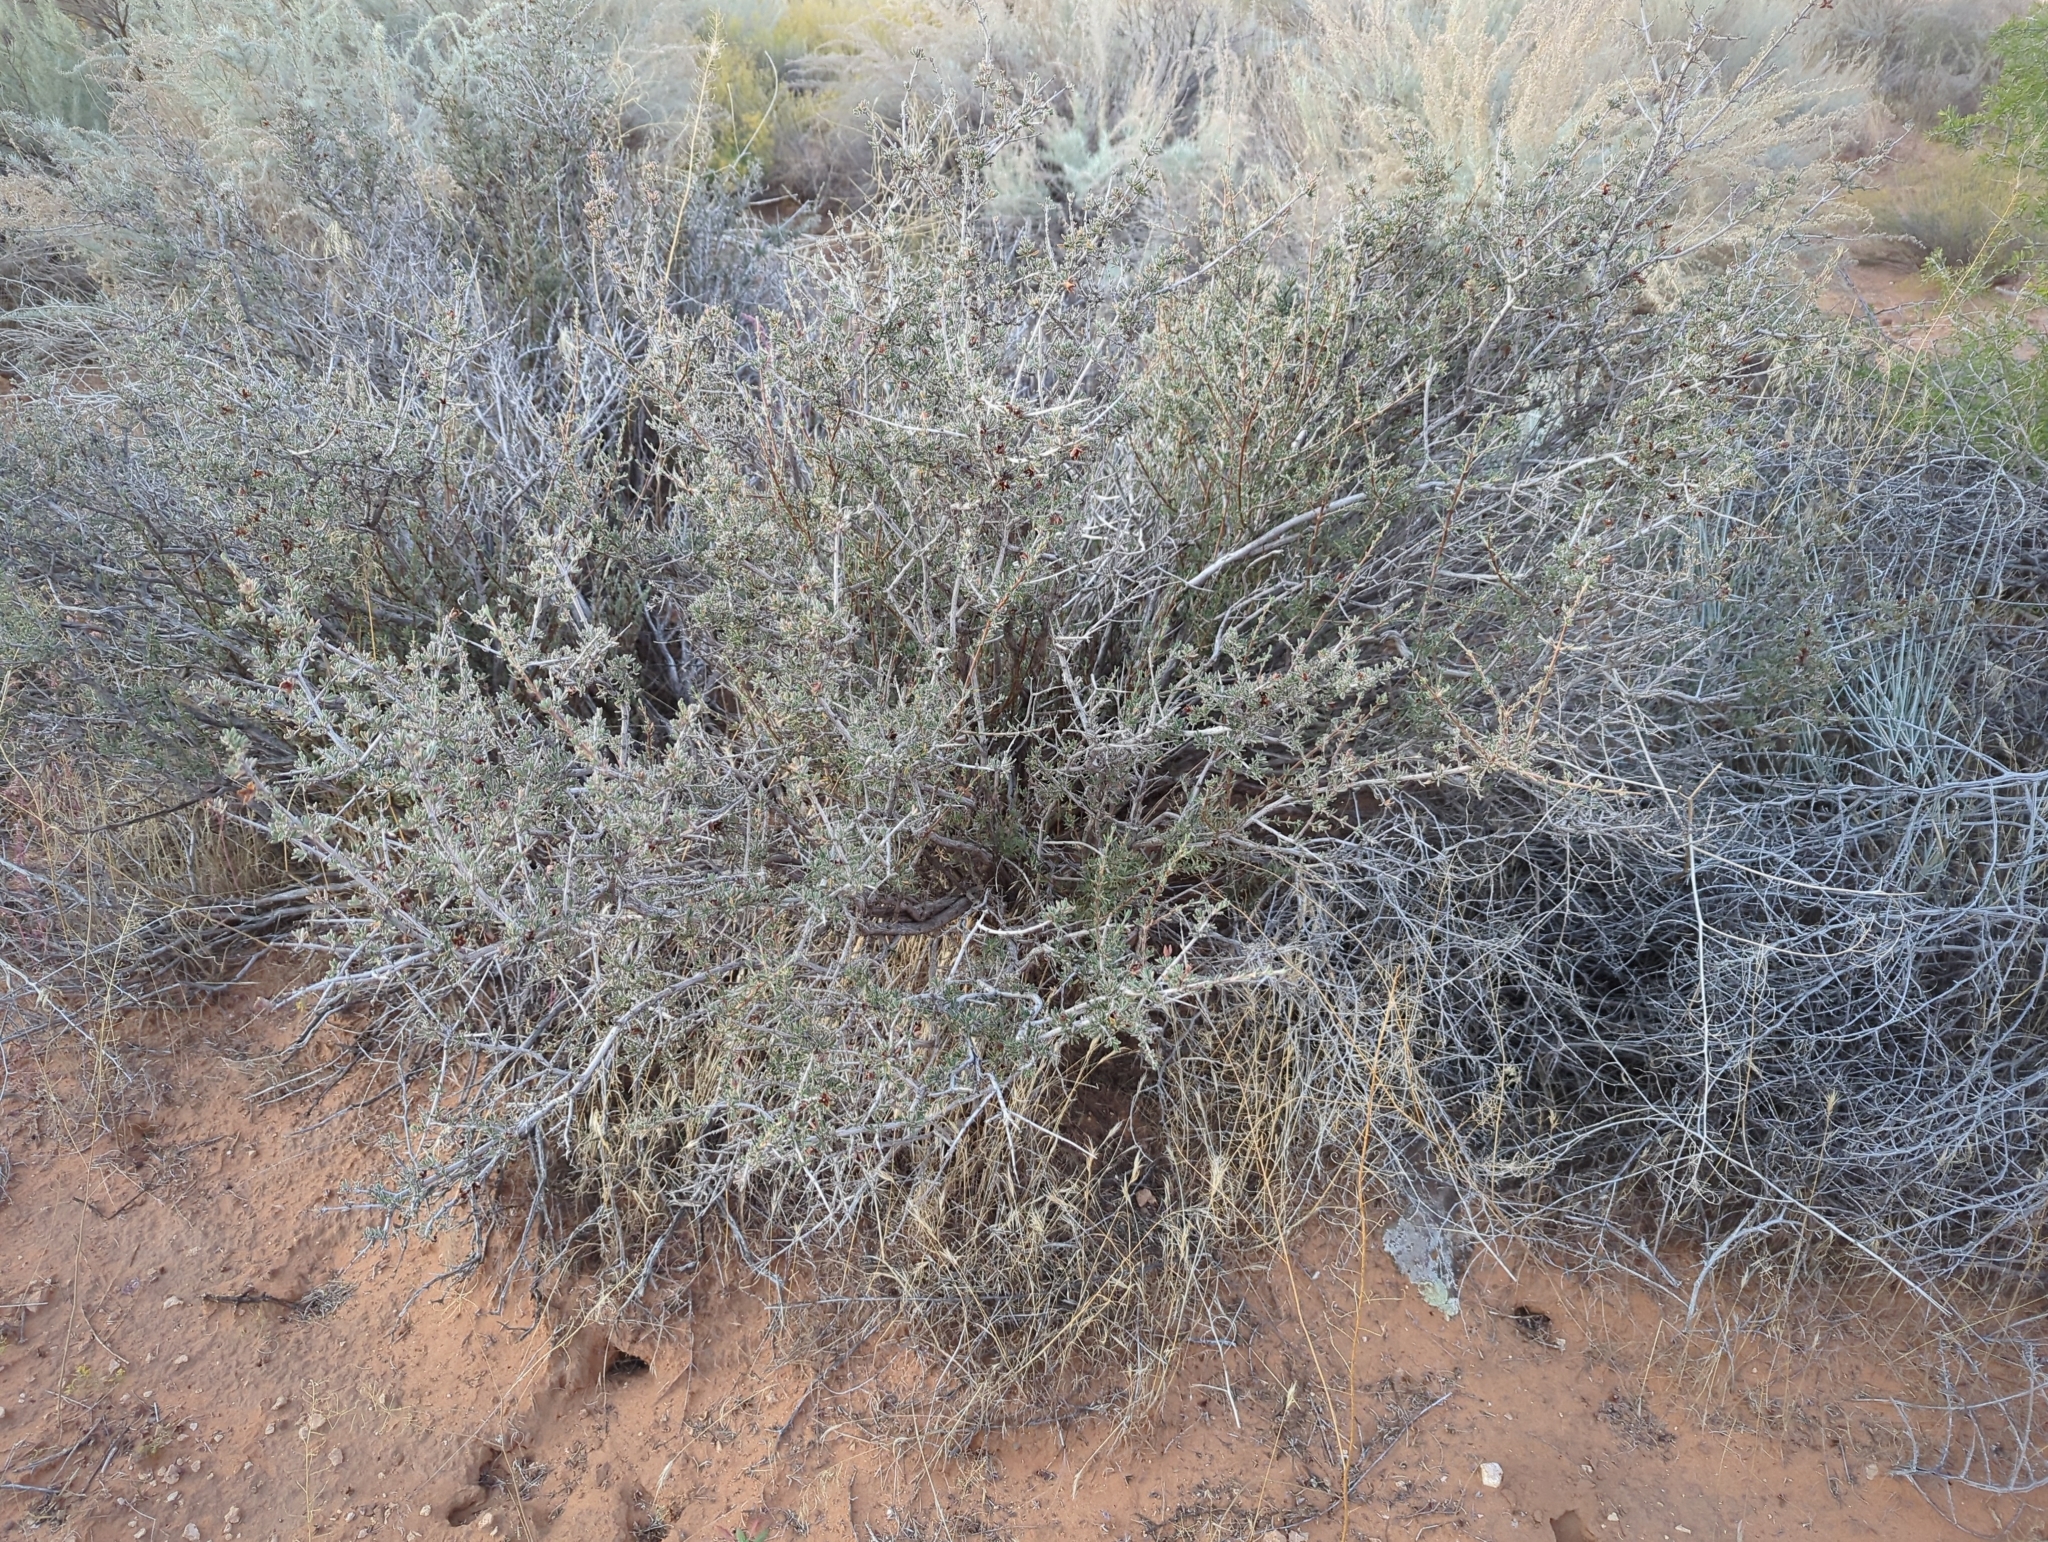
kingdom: Plantae
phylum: Tracheophyta
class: Magnoliopsida
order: Rosales
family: Rosaceae
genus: Coleogyne
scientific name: Coleogyne ramosissima
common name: Blackbrush
